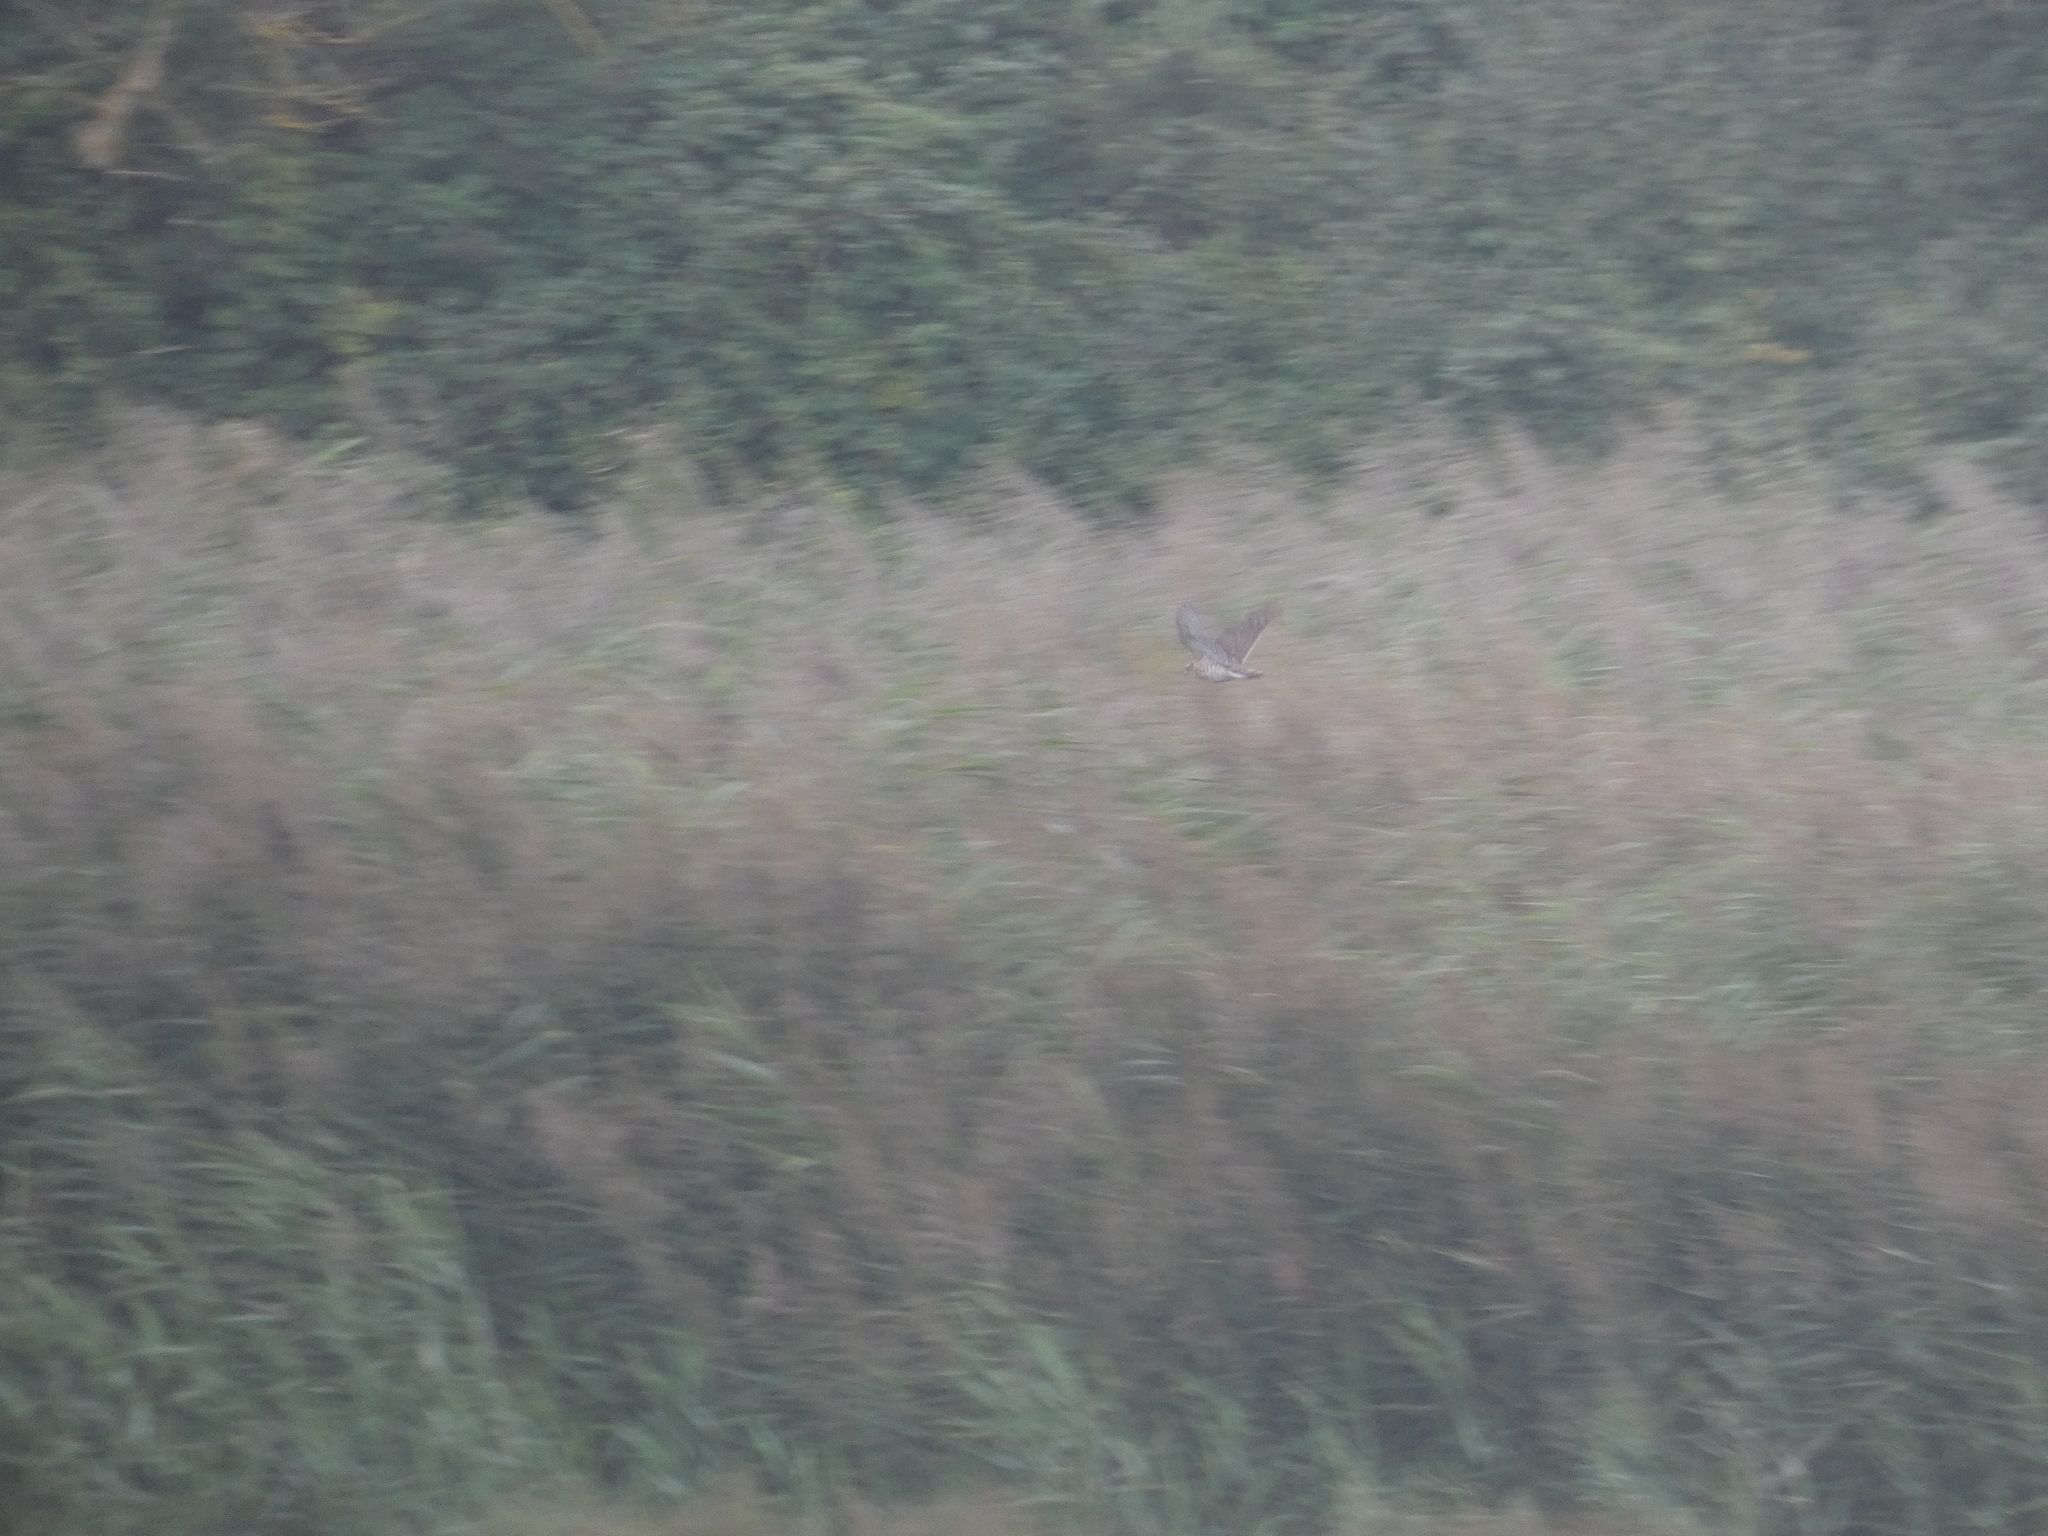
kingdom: Animalia
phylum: Chordata
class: Aves
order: Accipitriformes
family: Accipitridae
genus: Accipiter
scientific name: Accipiter nisus
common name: Eurasian sparrowhawk
